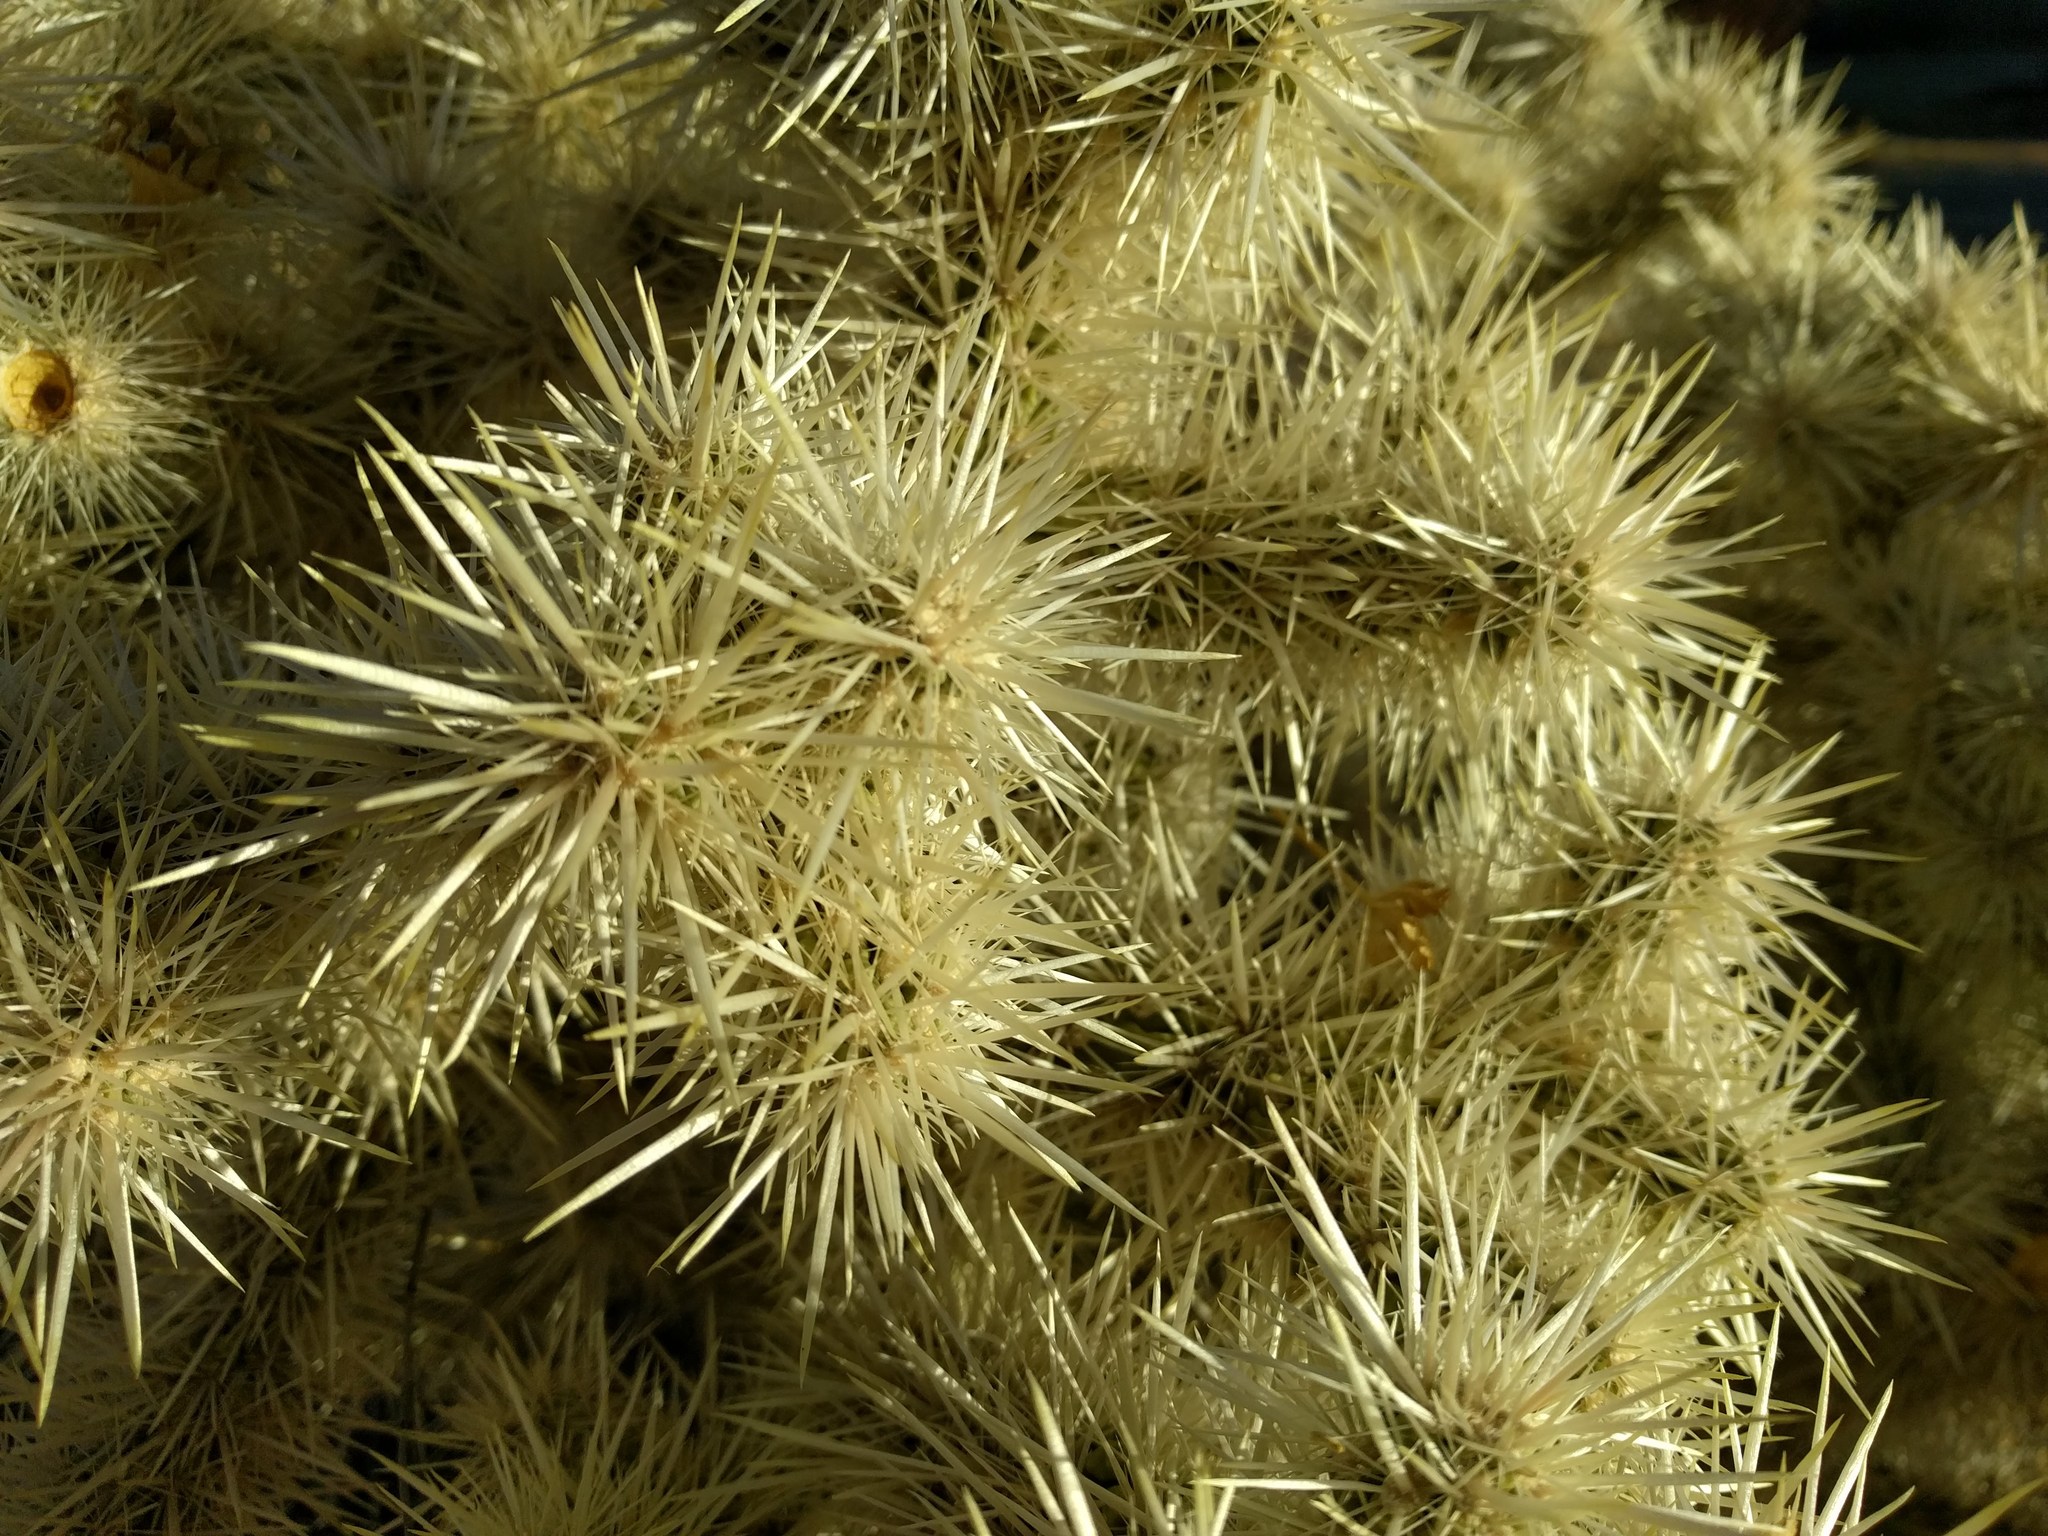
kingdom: Plantae
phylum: Tracheophyta
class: Magnoliopsida
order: Caryophyllales
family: Cactaceae
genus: Cylindropuntia
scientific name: Cylindropuntia echinocarpa
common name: Ground cholla
